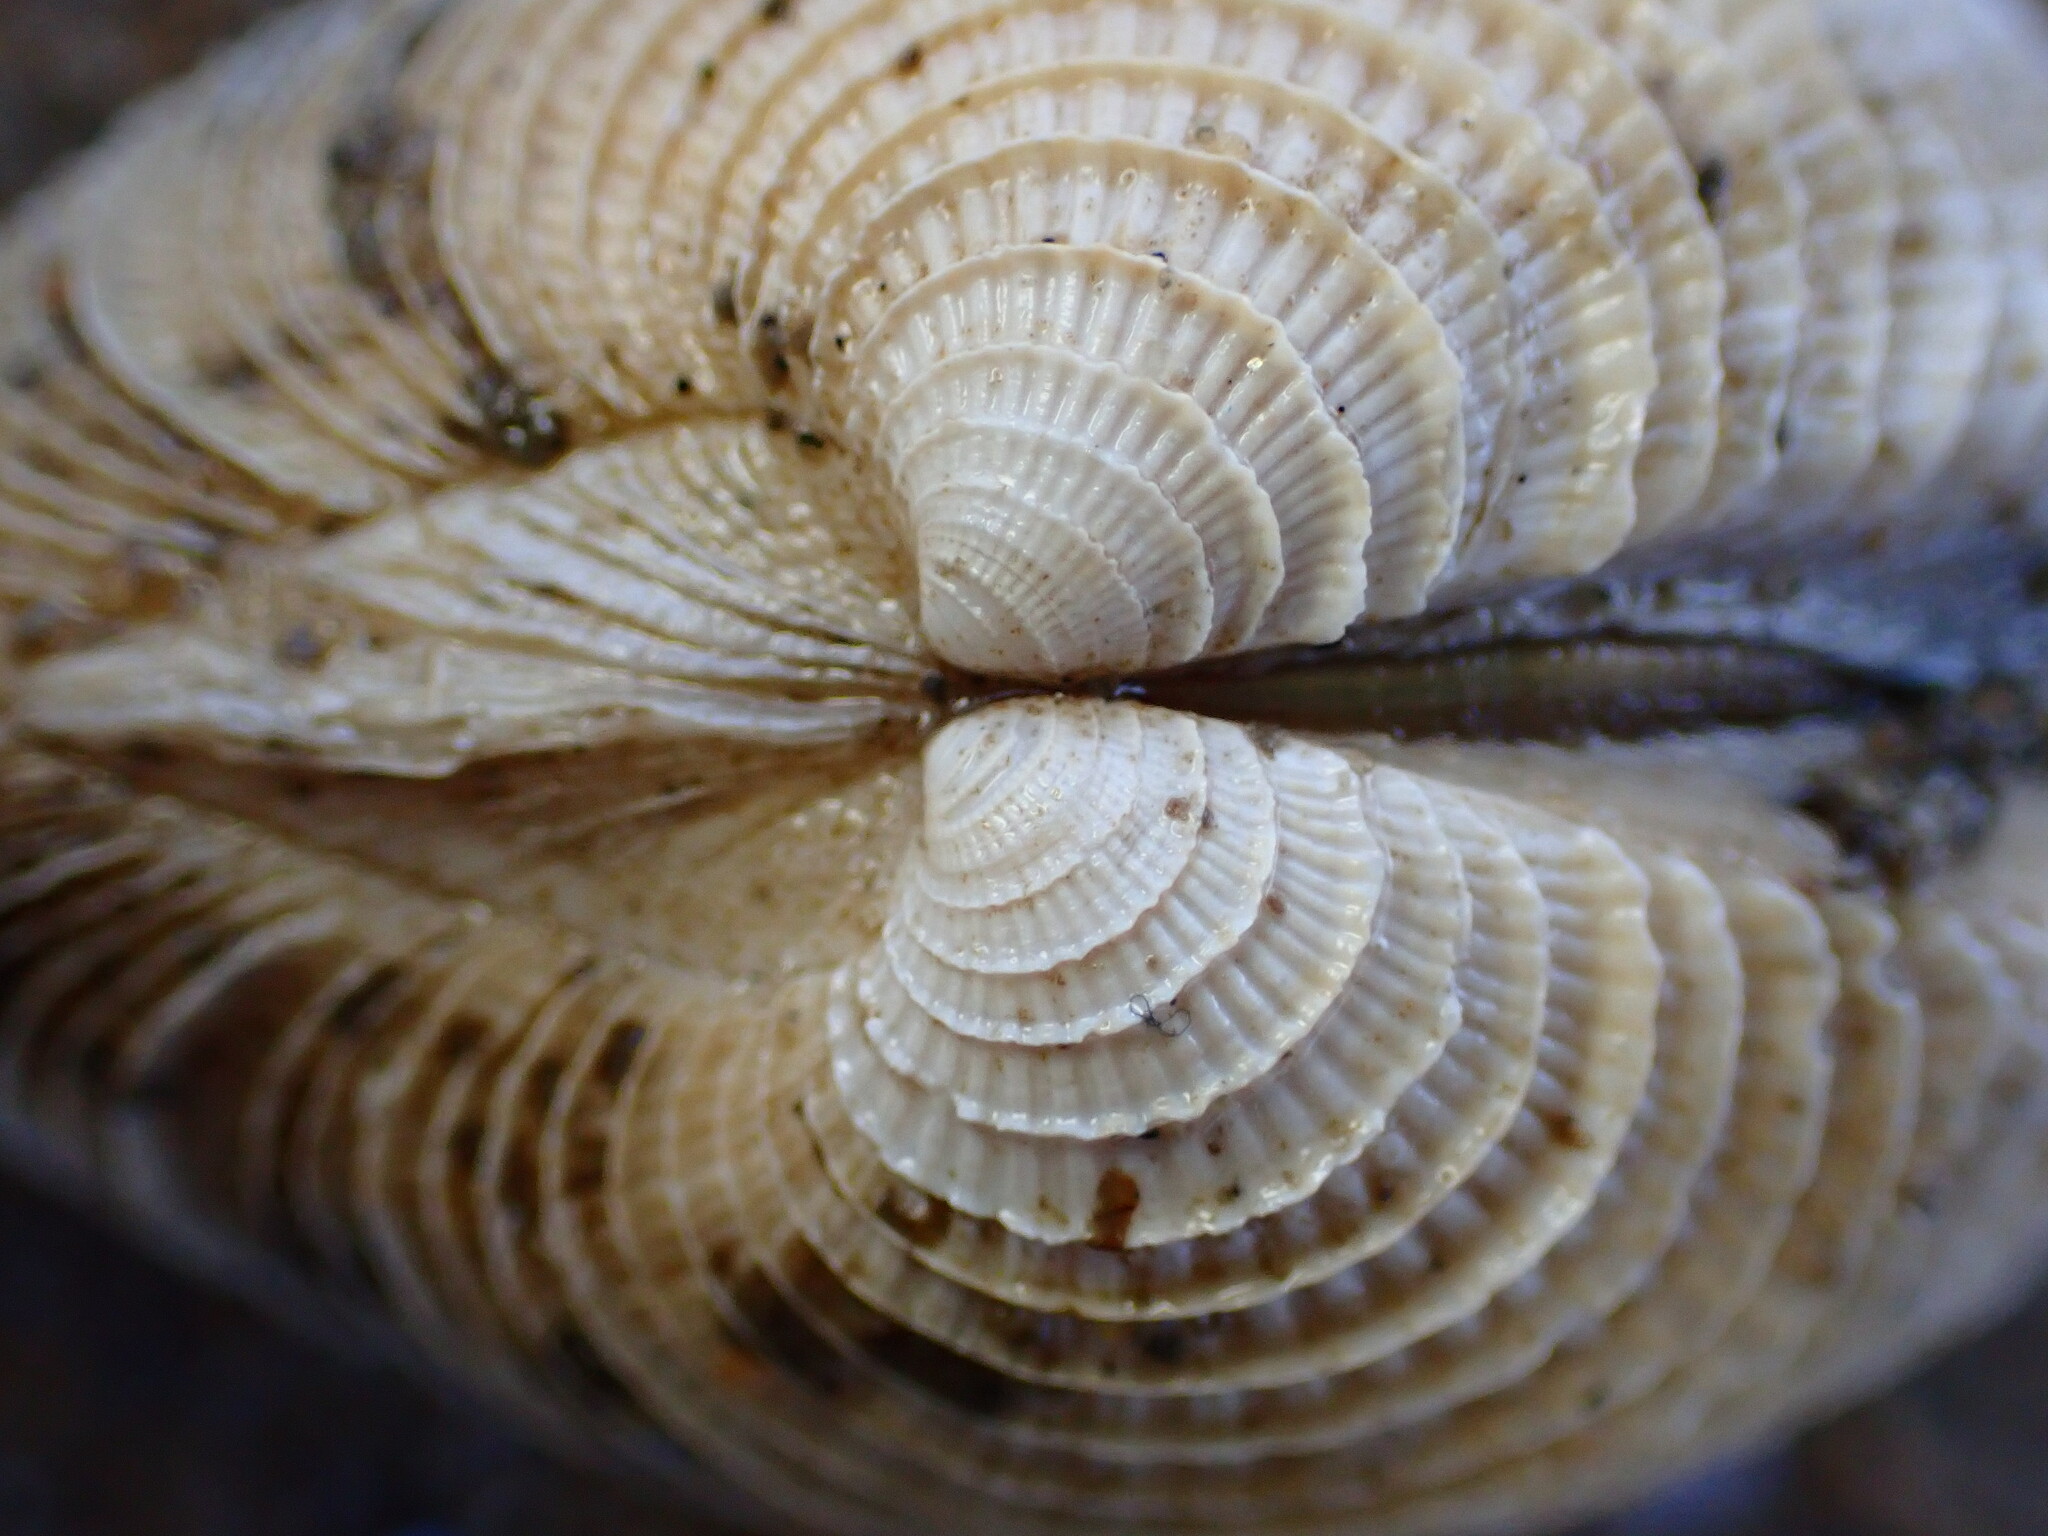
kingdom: Animalia
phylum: Mollusca
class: Bivalvia
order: Venerida
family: Veneridae
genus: Chione
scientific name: Chione undatella
